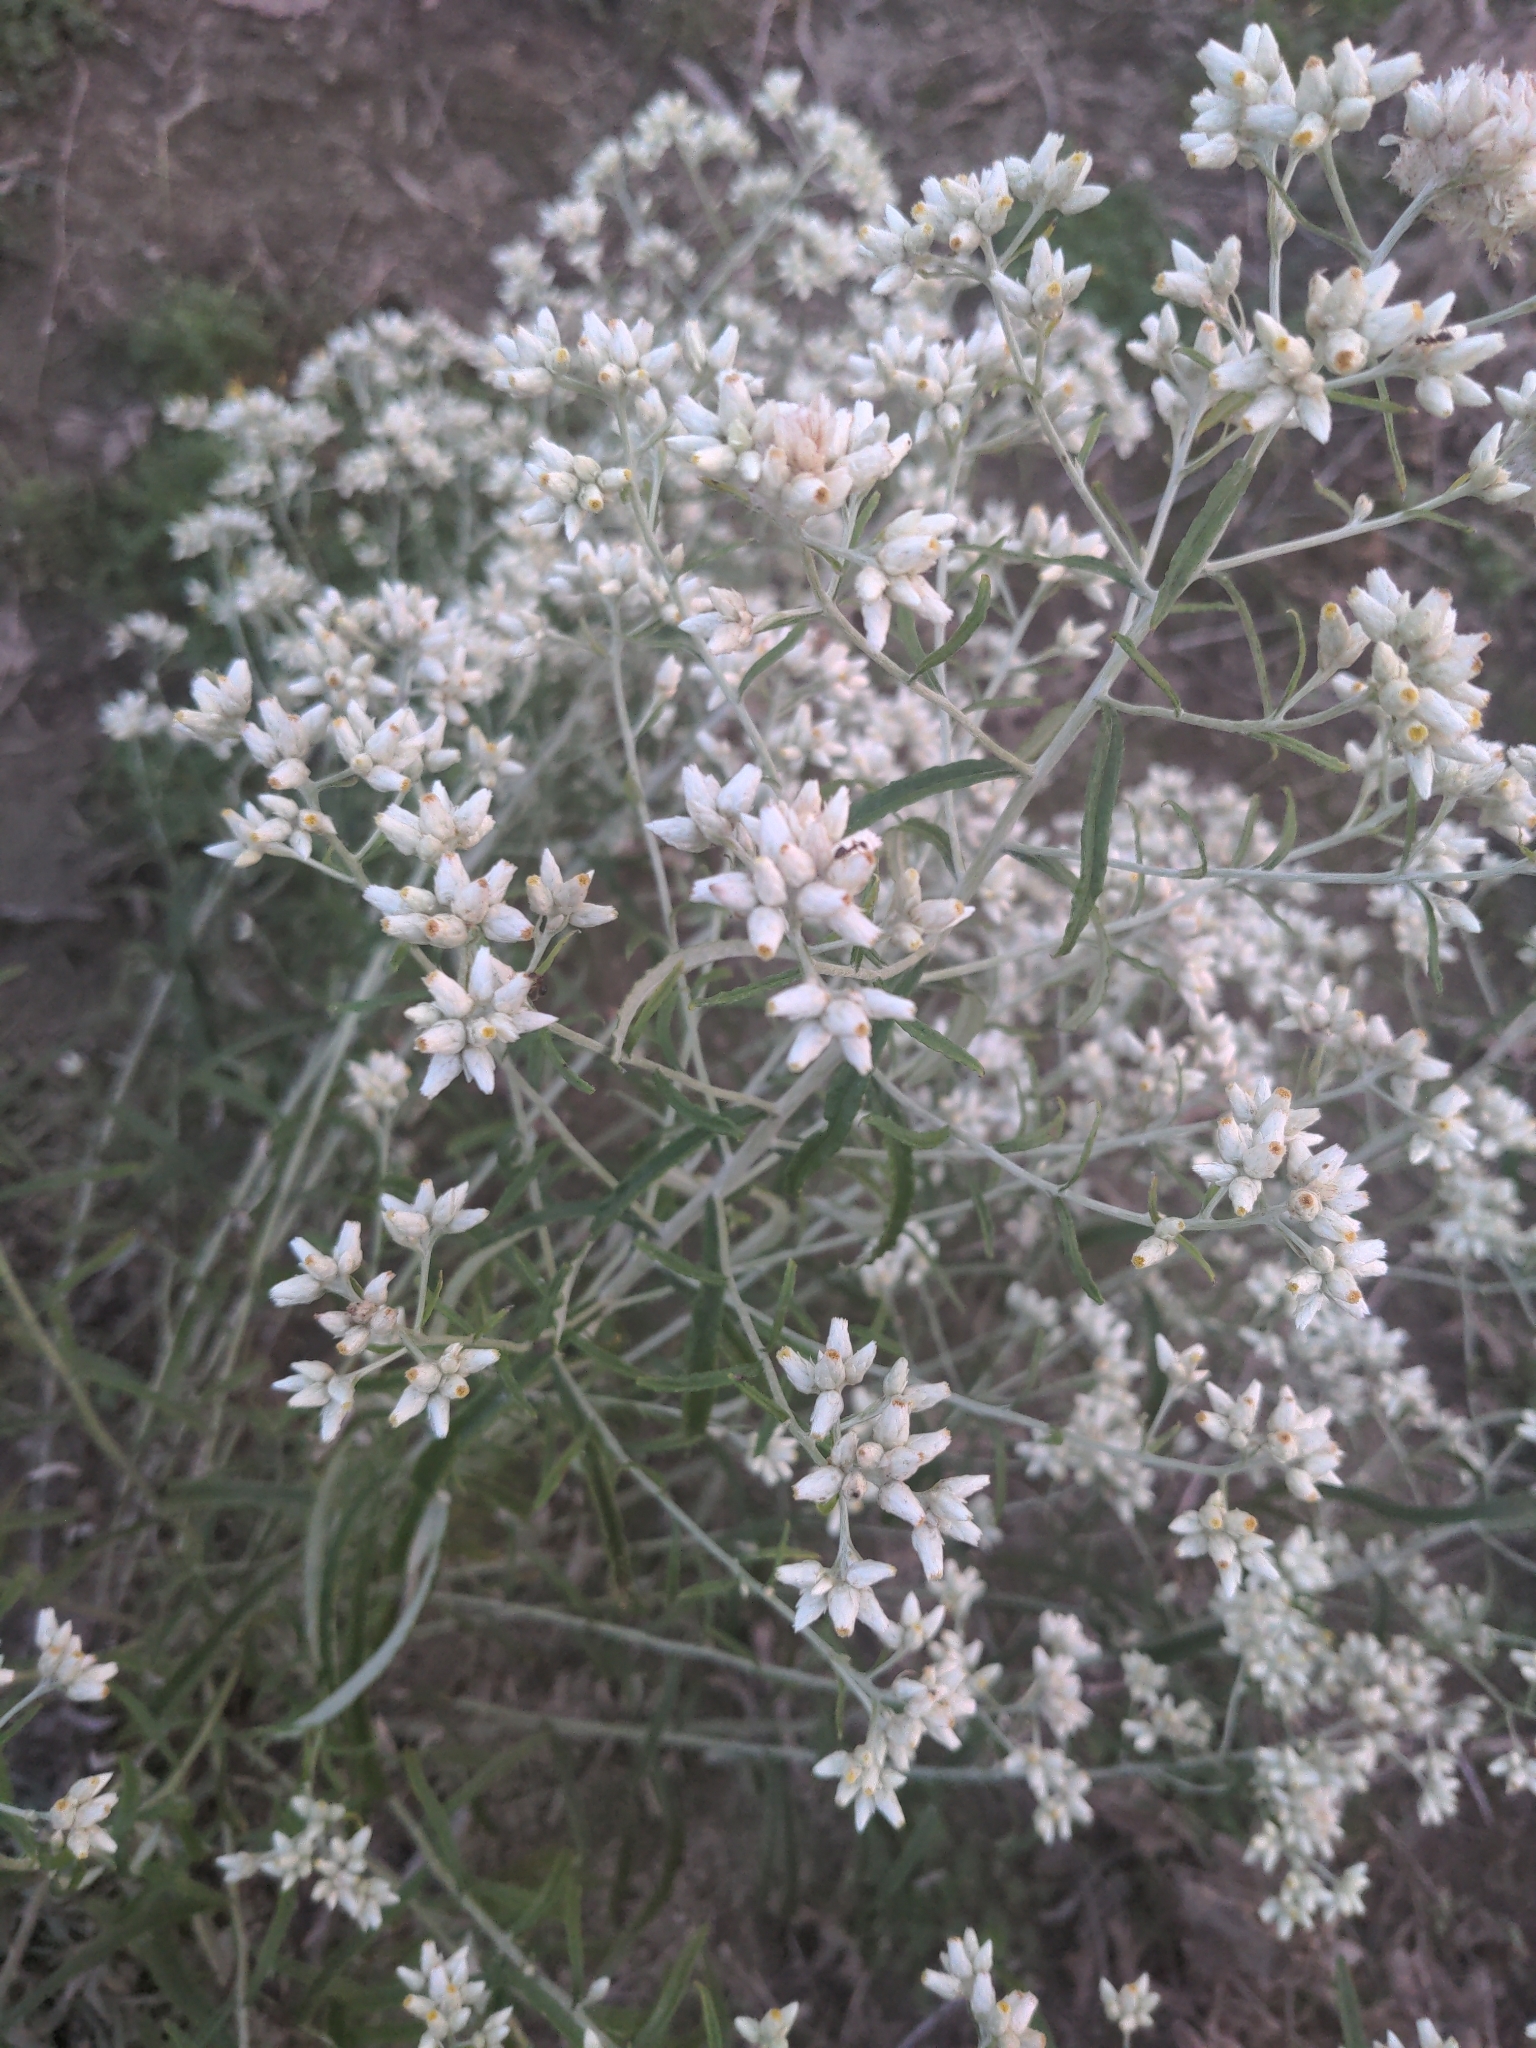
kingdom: Plantae
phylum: Tracheophyta
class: Magnoliopsida
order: Asterales
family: Asteraceae
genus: Pseudognaphalium
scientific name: Pseudognaphalium obtusifolium
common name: Eastern rabbit-tobacco
